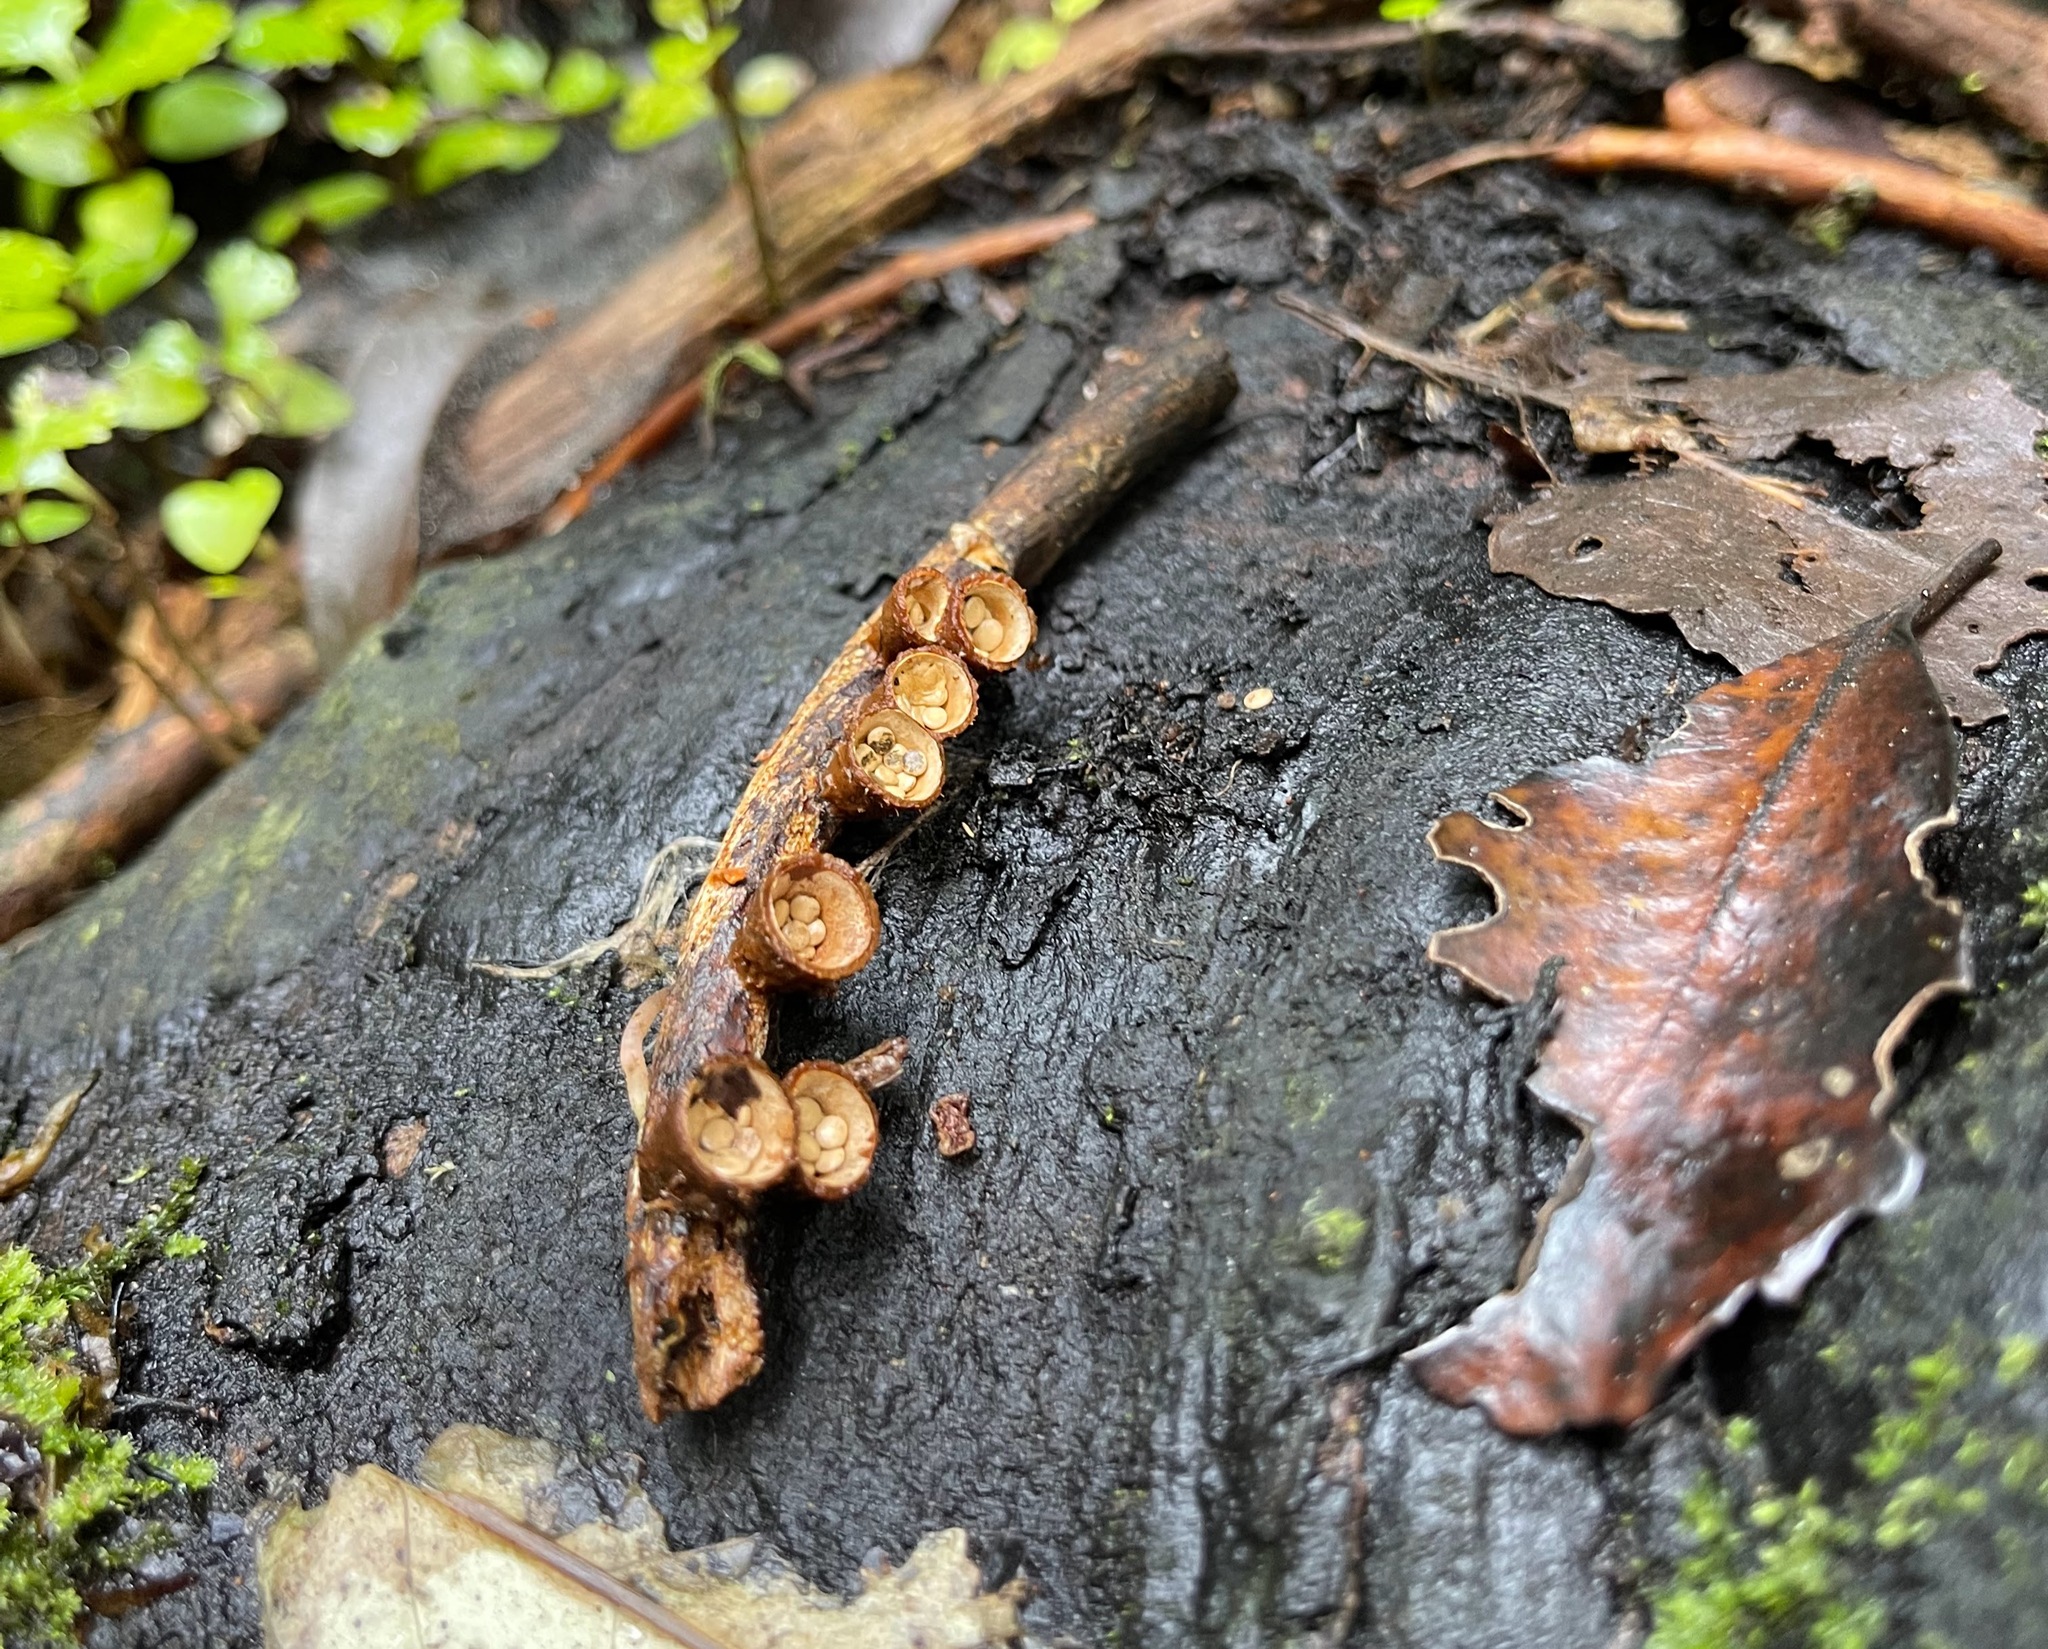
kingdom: Fungi
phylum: Basidiomycota
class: Agaricomycetes
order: Agaricales
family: Nidulariaceae
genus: Crucibulum
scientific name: Crucibulum simile
